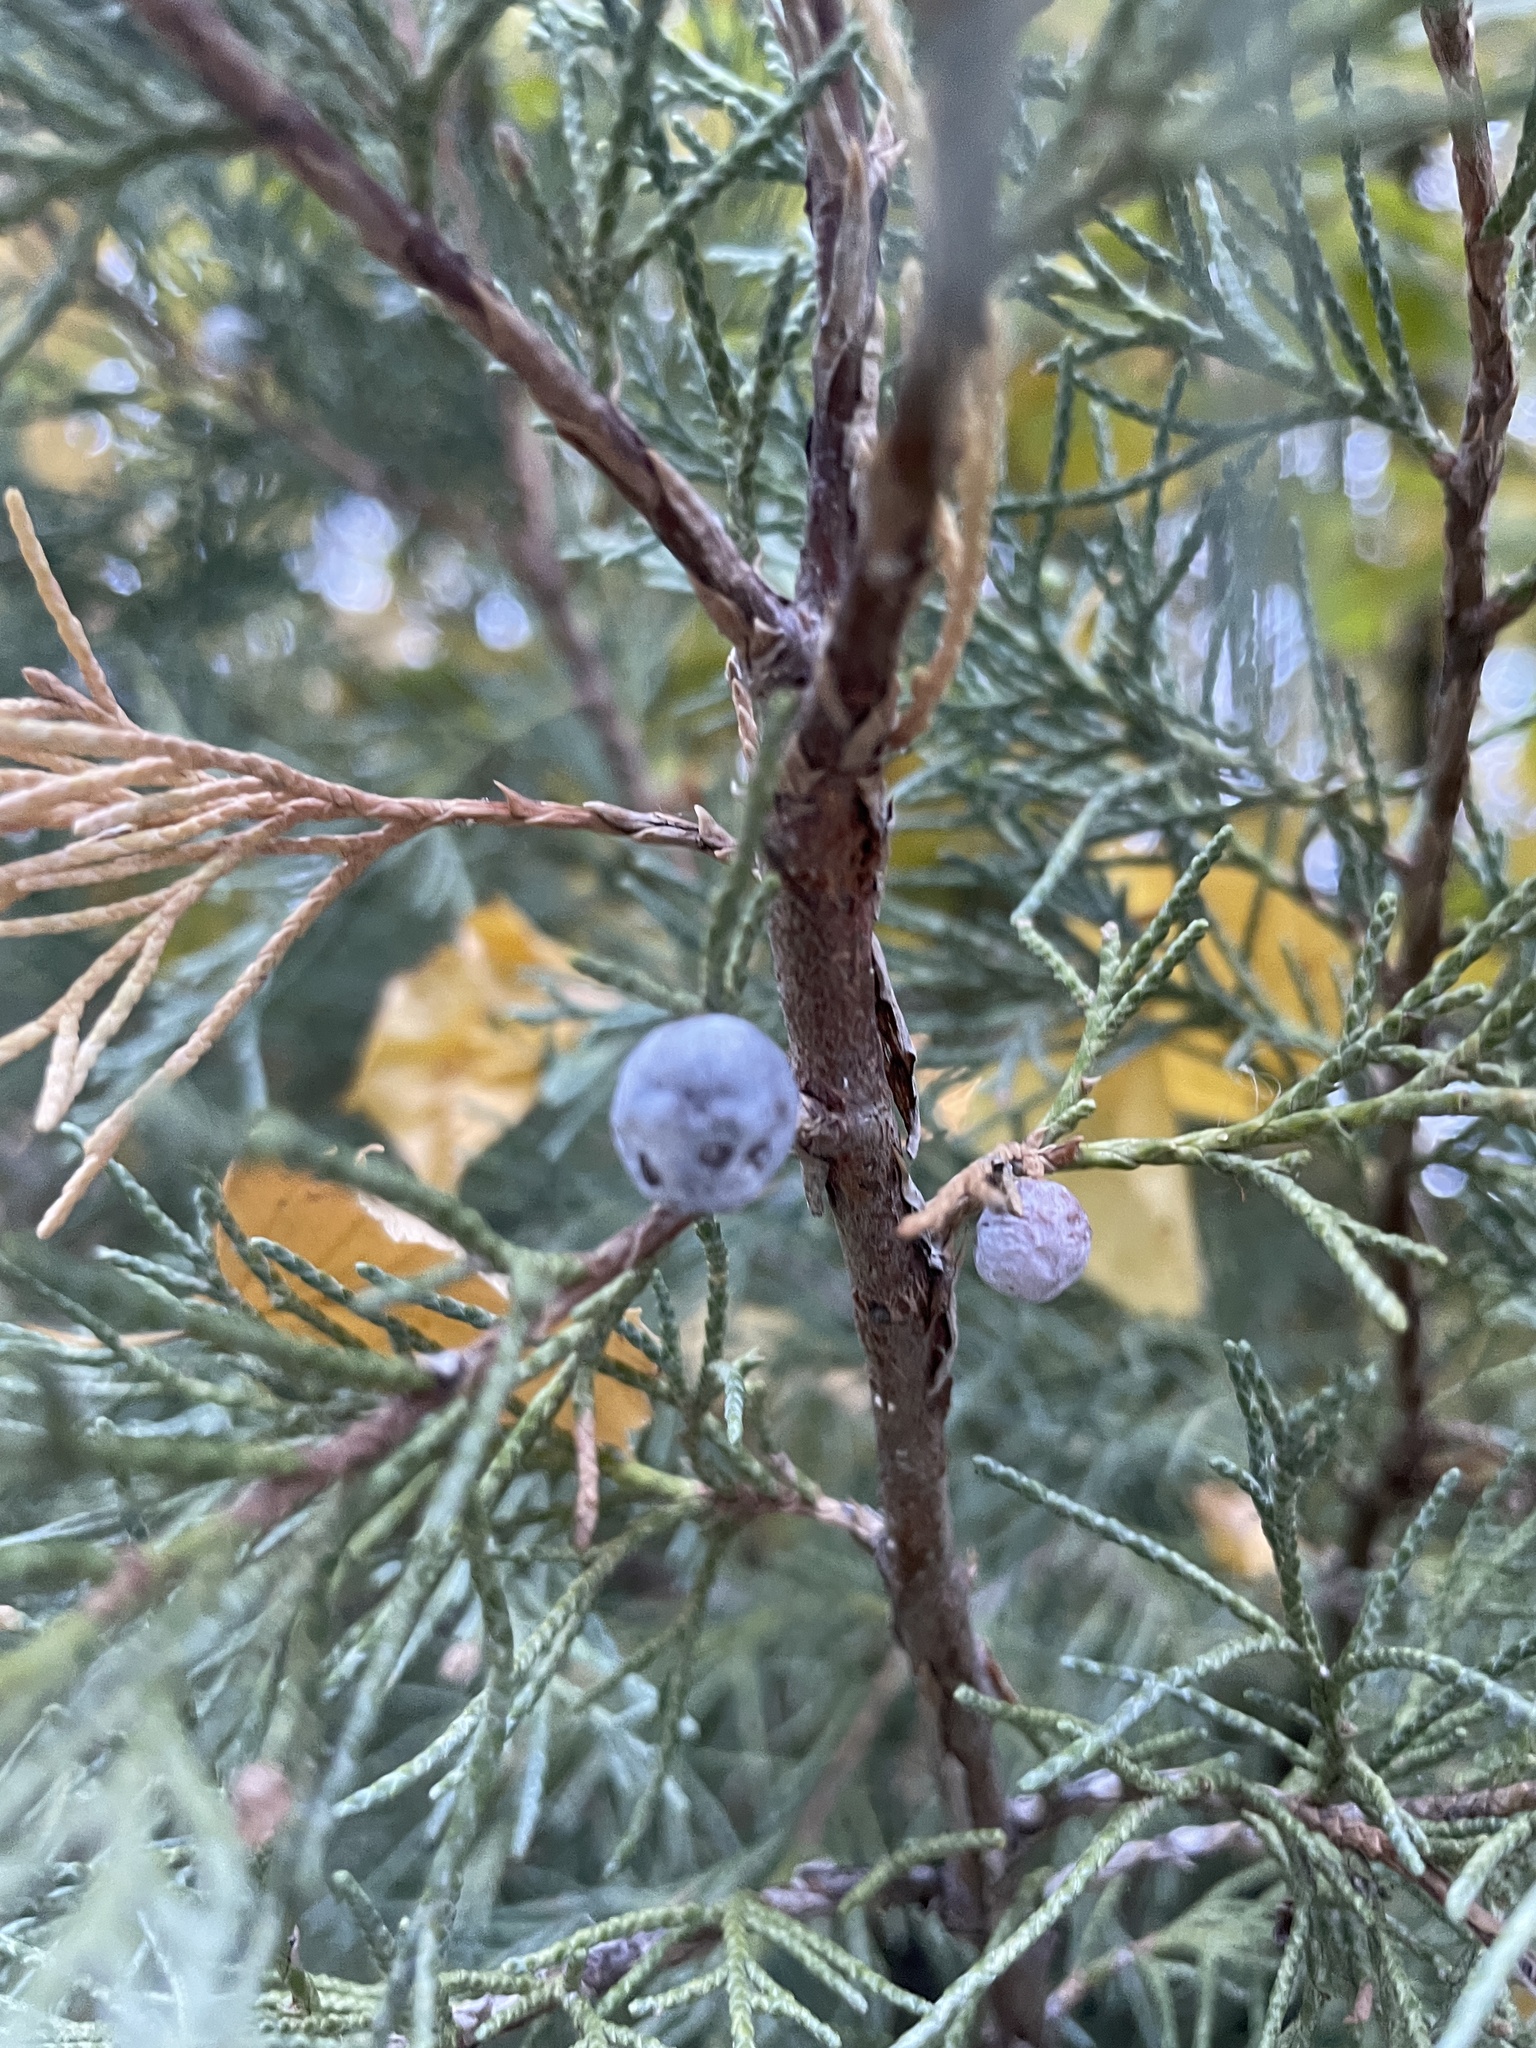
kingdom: Plantae
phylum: Tracheophyta
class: Pinopsida
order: Pinales
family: Cupressaceae
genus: Juniperus
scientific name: Juniperus scopulorum
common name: Rocky mountain juniper
